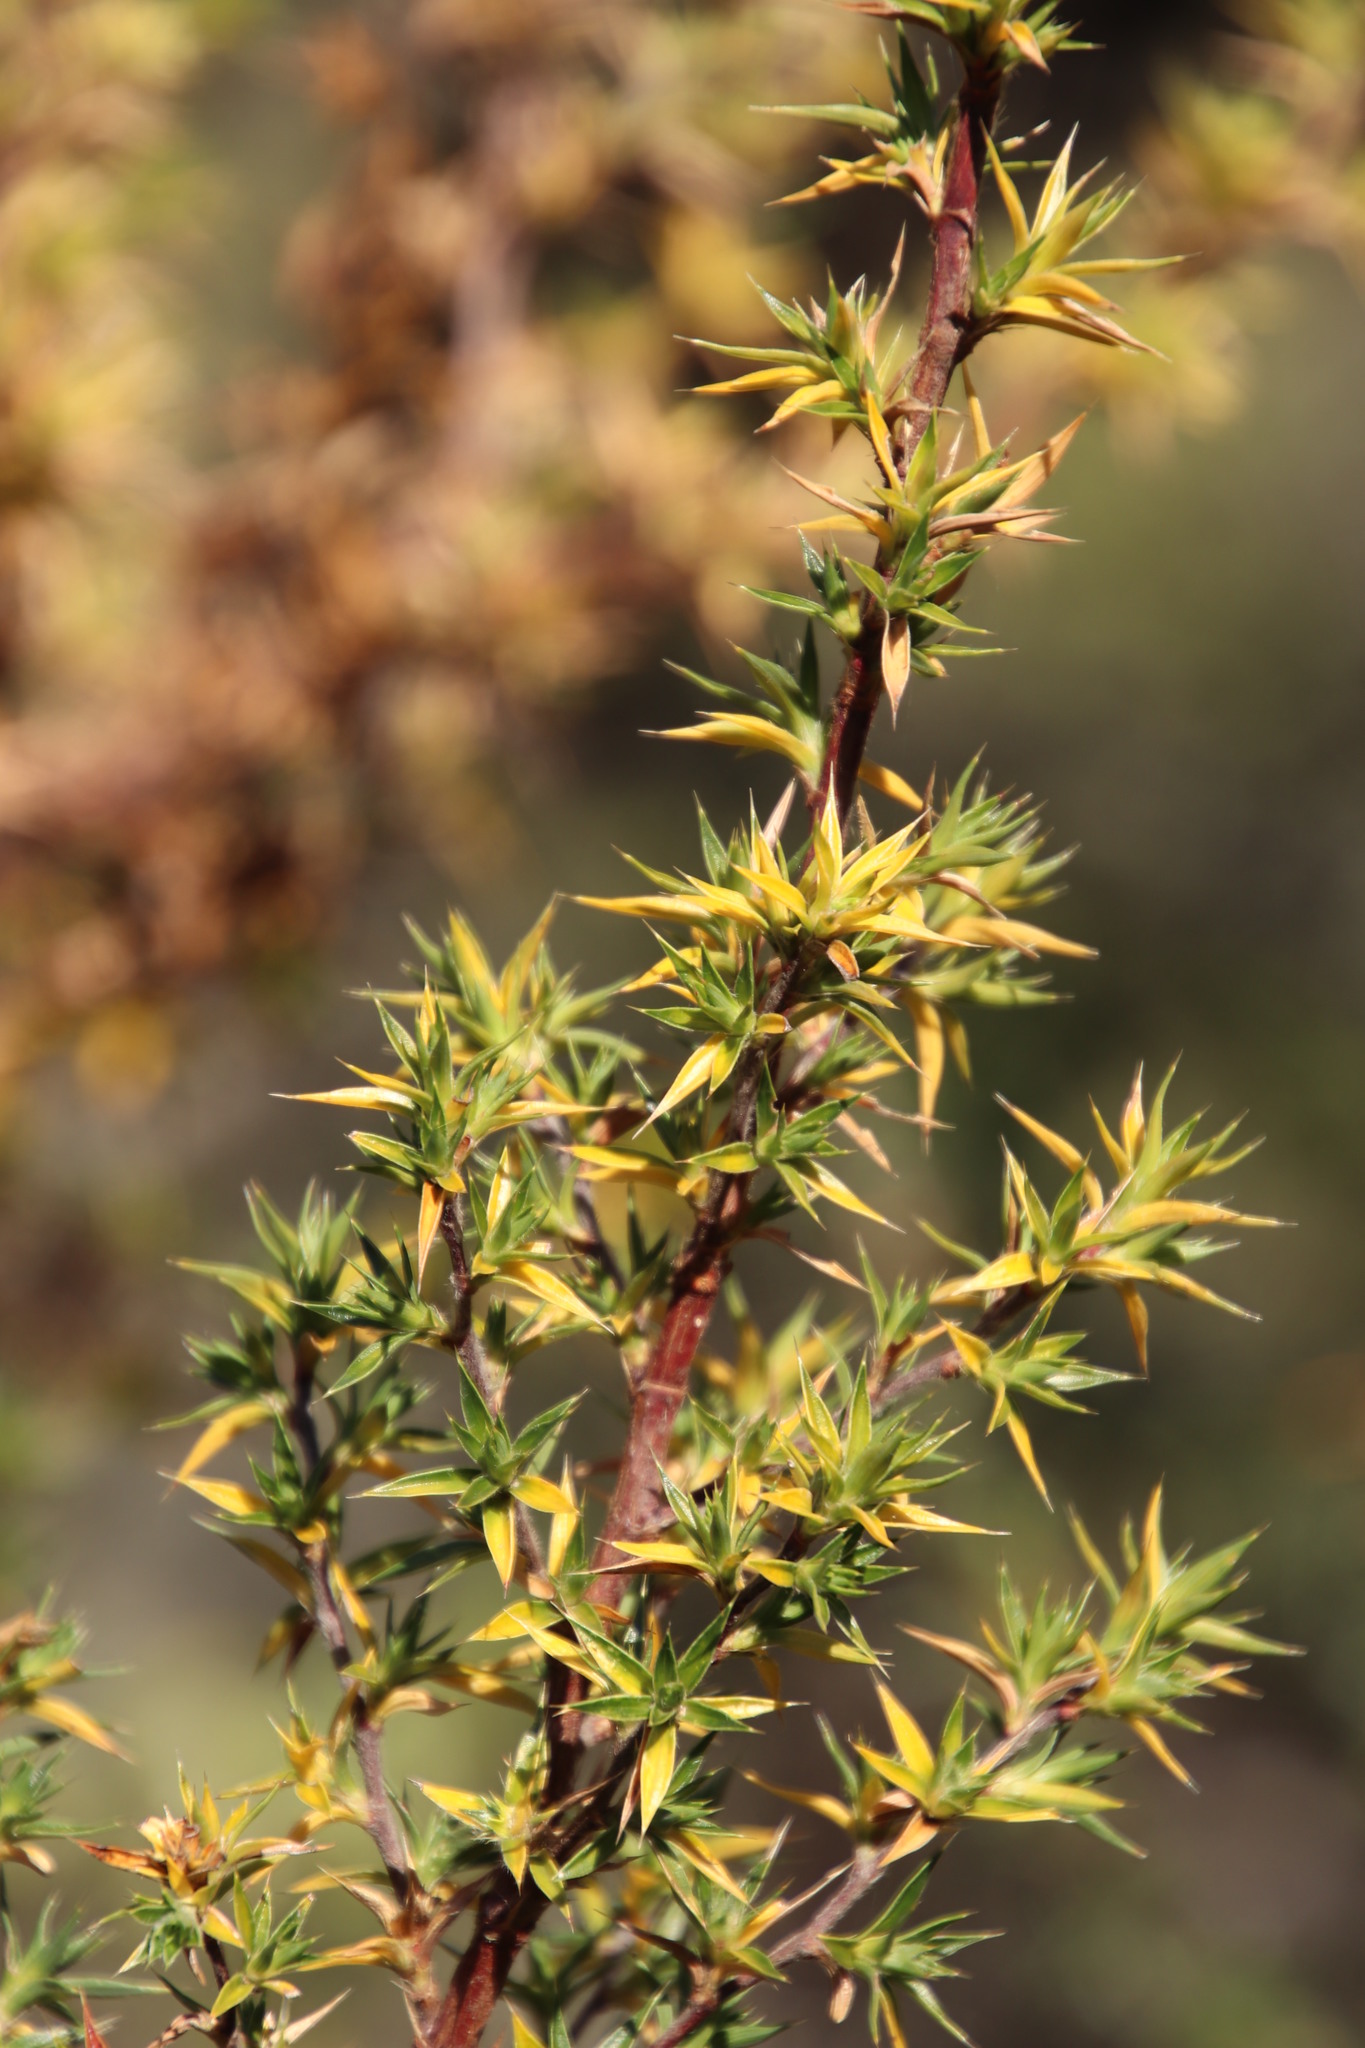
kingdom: Plantae
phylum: Tracheophyta
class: Magnoliopsida
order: Rosales
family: Rosaceae
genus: Cliffortia
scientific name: Cliffortia ruscifolia
